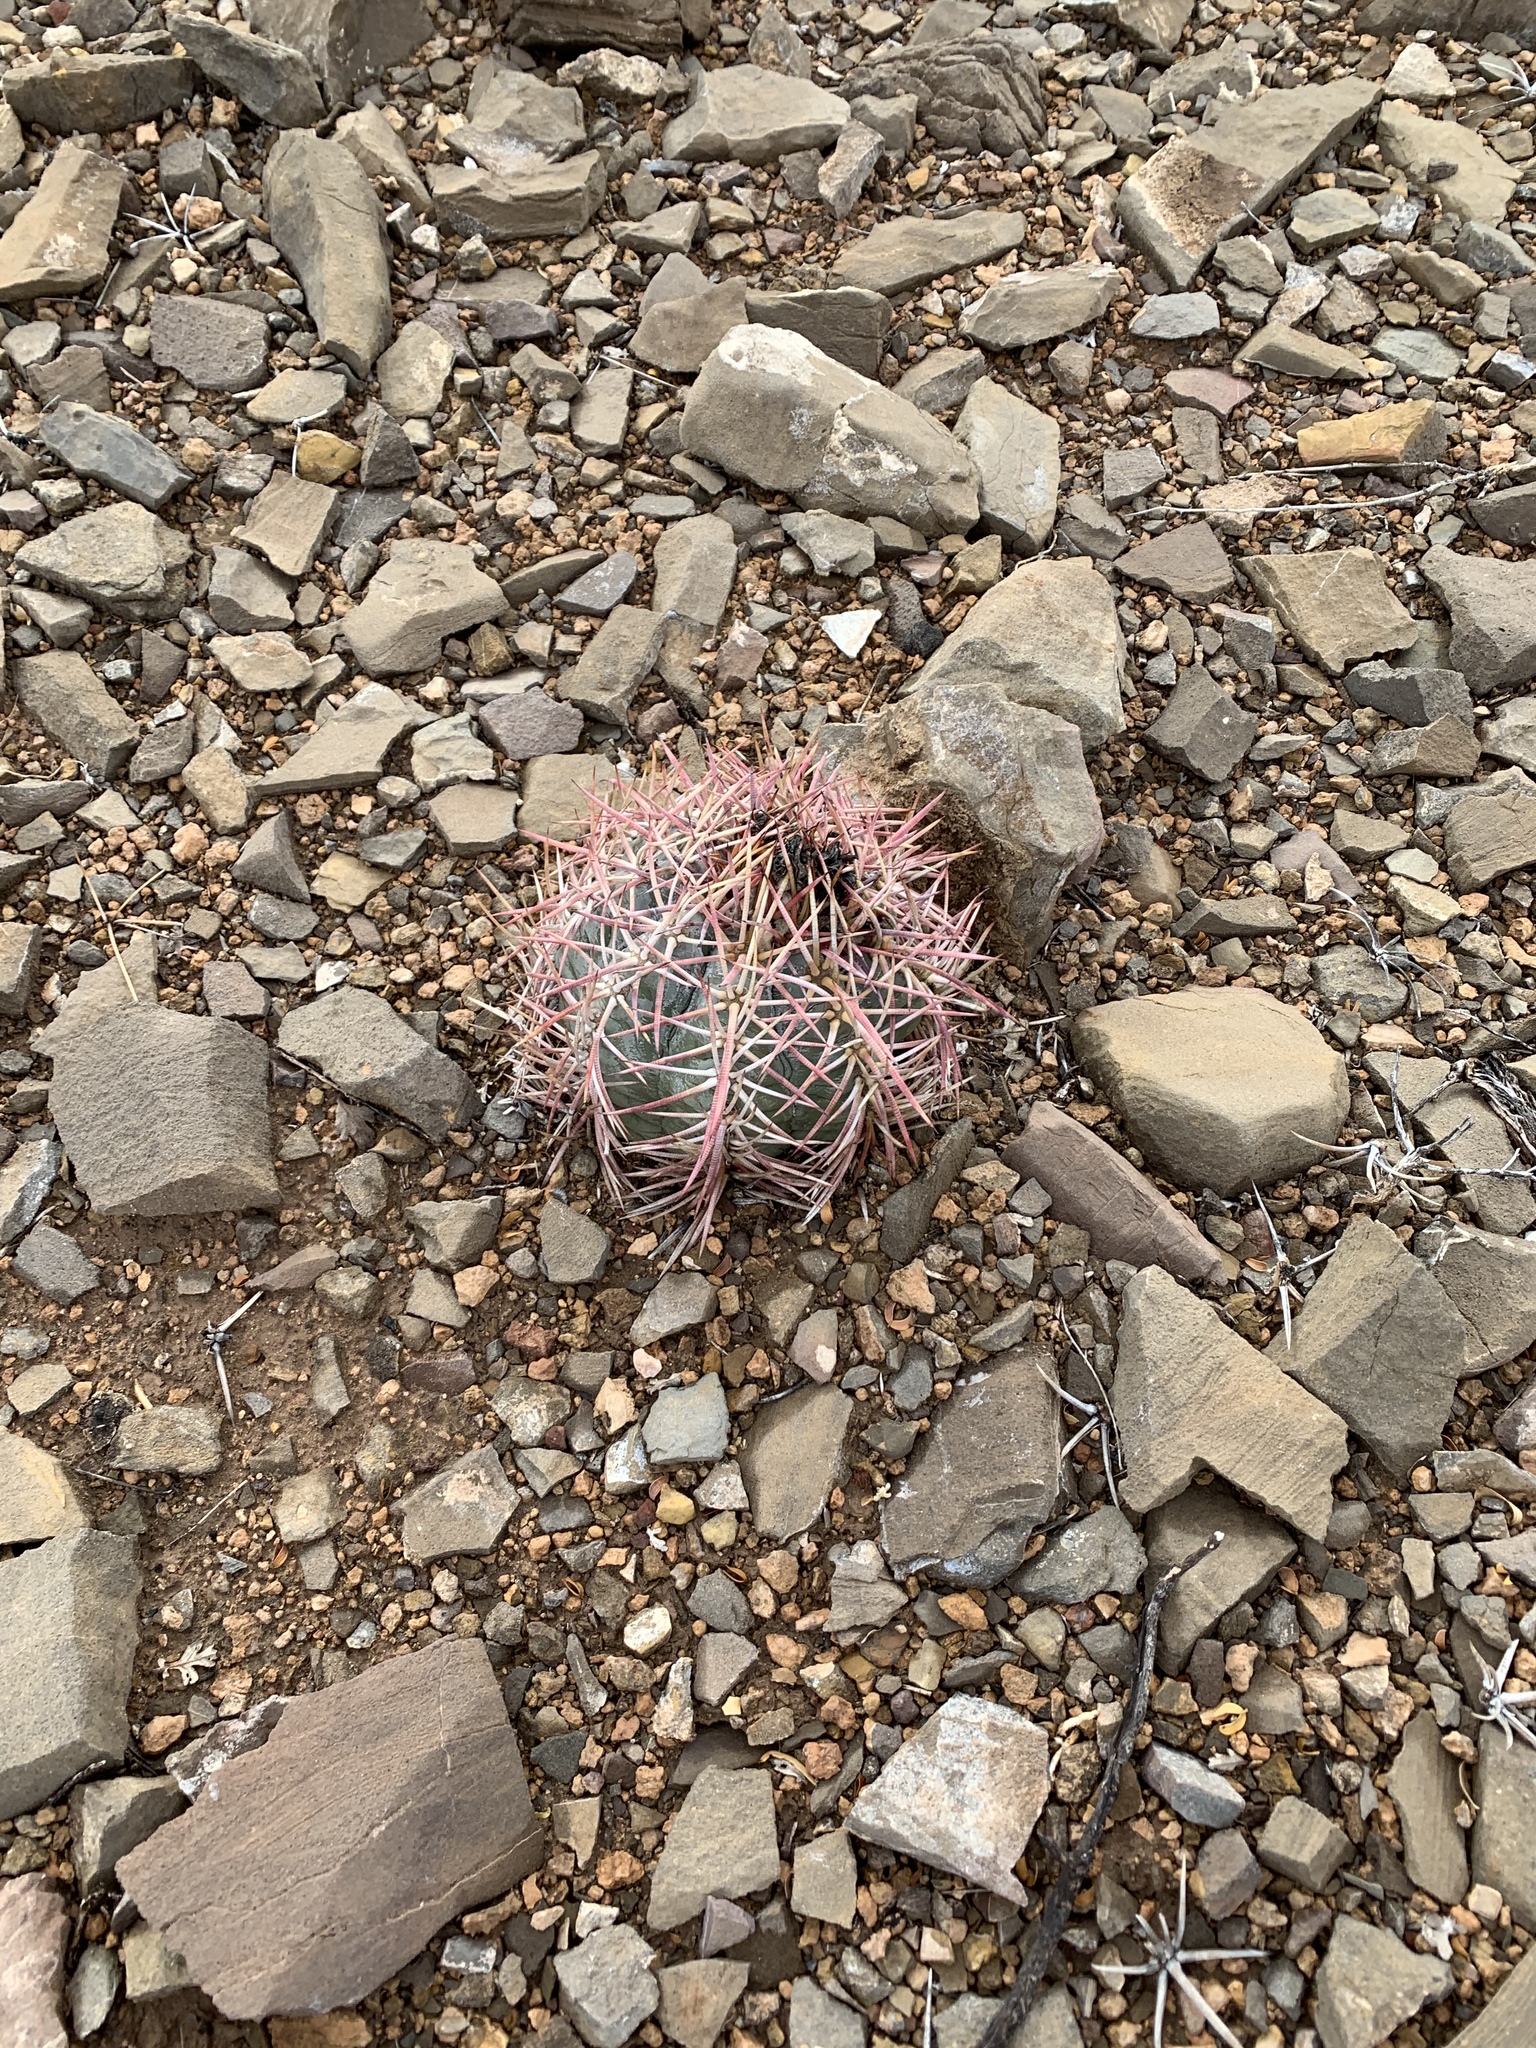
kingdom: Plantae
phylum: Tracheophyta
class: Magnoliopsida
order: Caryophyllales
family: Cactaceae
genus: Echinocactus
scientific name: Echinocactus horizonthalonius
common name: Devilshead
